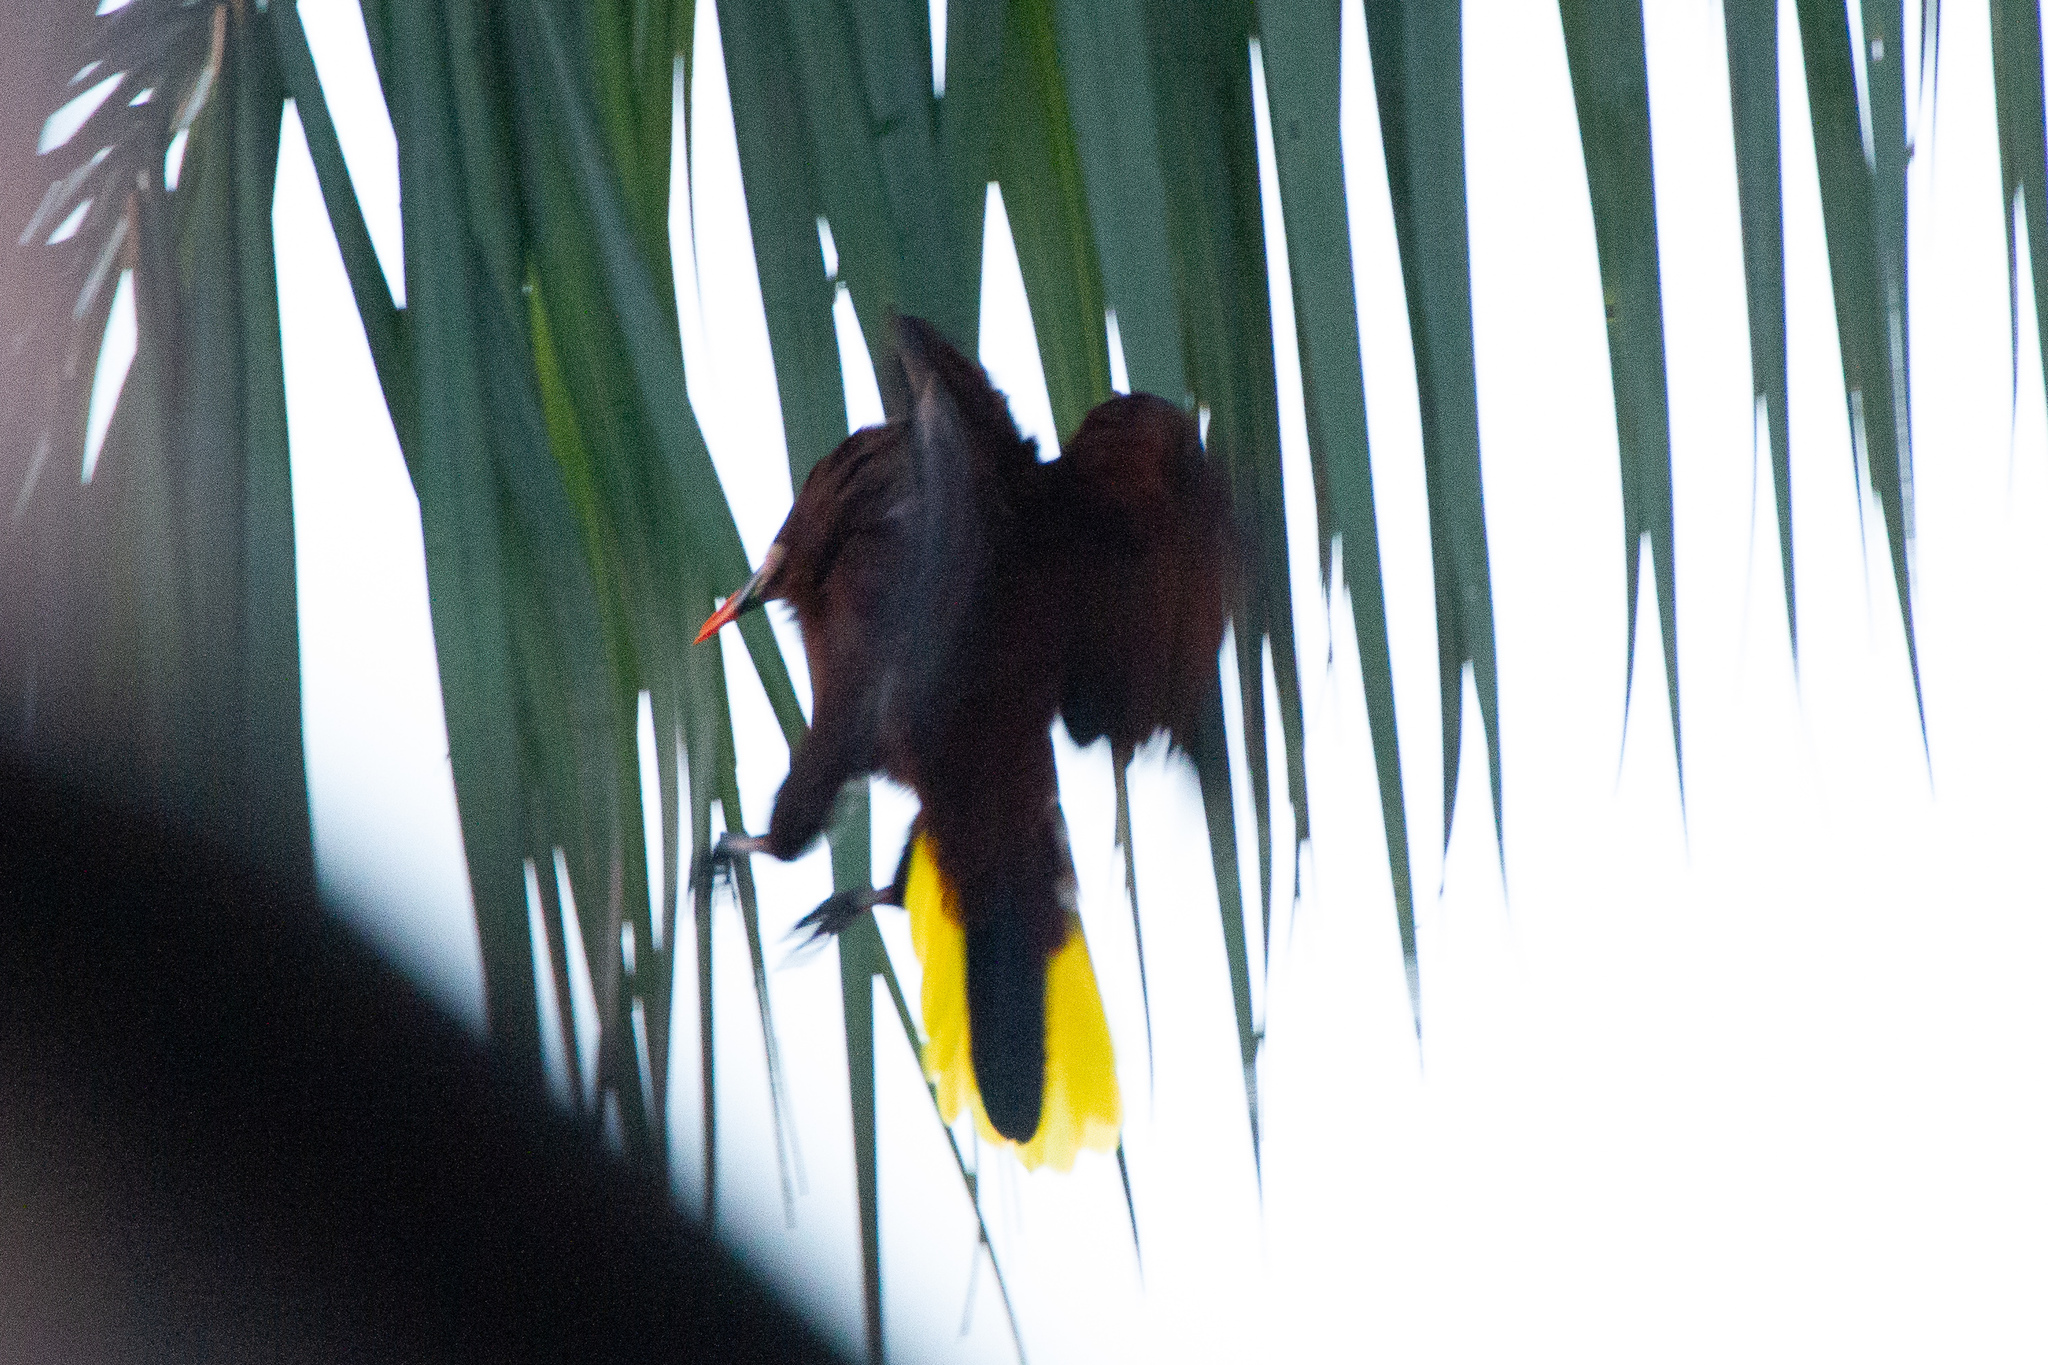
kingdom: Animalia
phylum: Chordata
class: Aves
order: Passeriformes
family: Icteridae
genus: Psarocolius
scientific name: Psarocolius montezuma
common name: Montezuma oropendola
